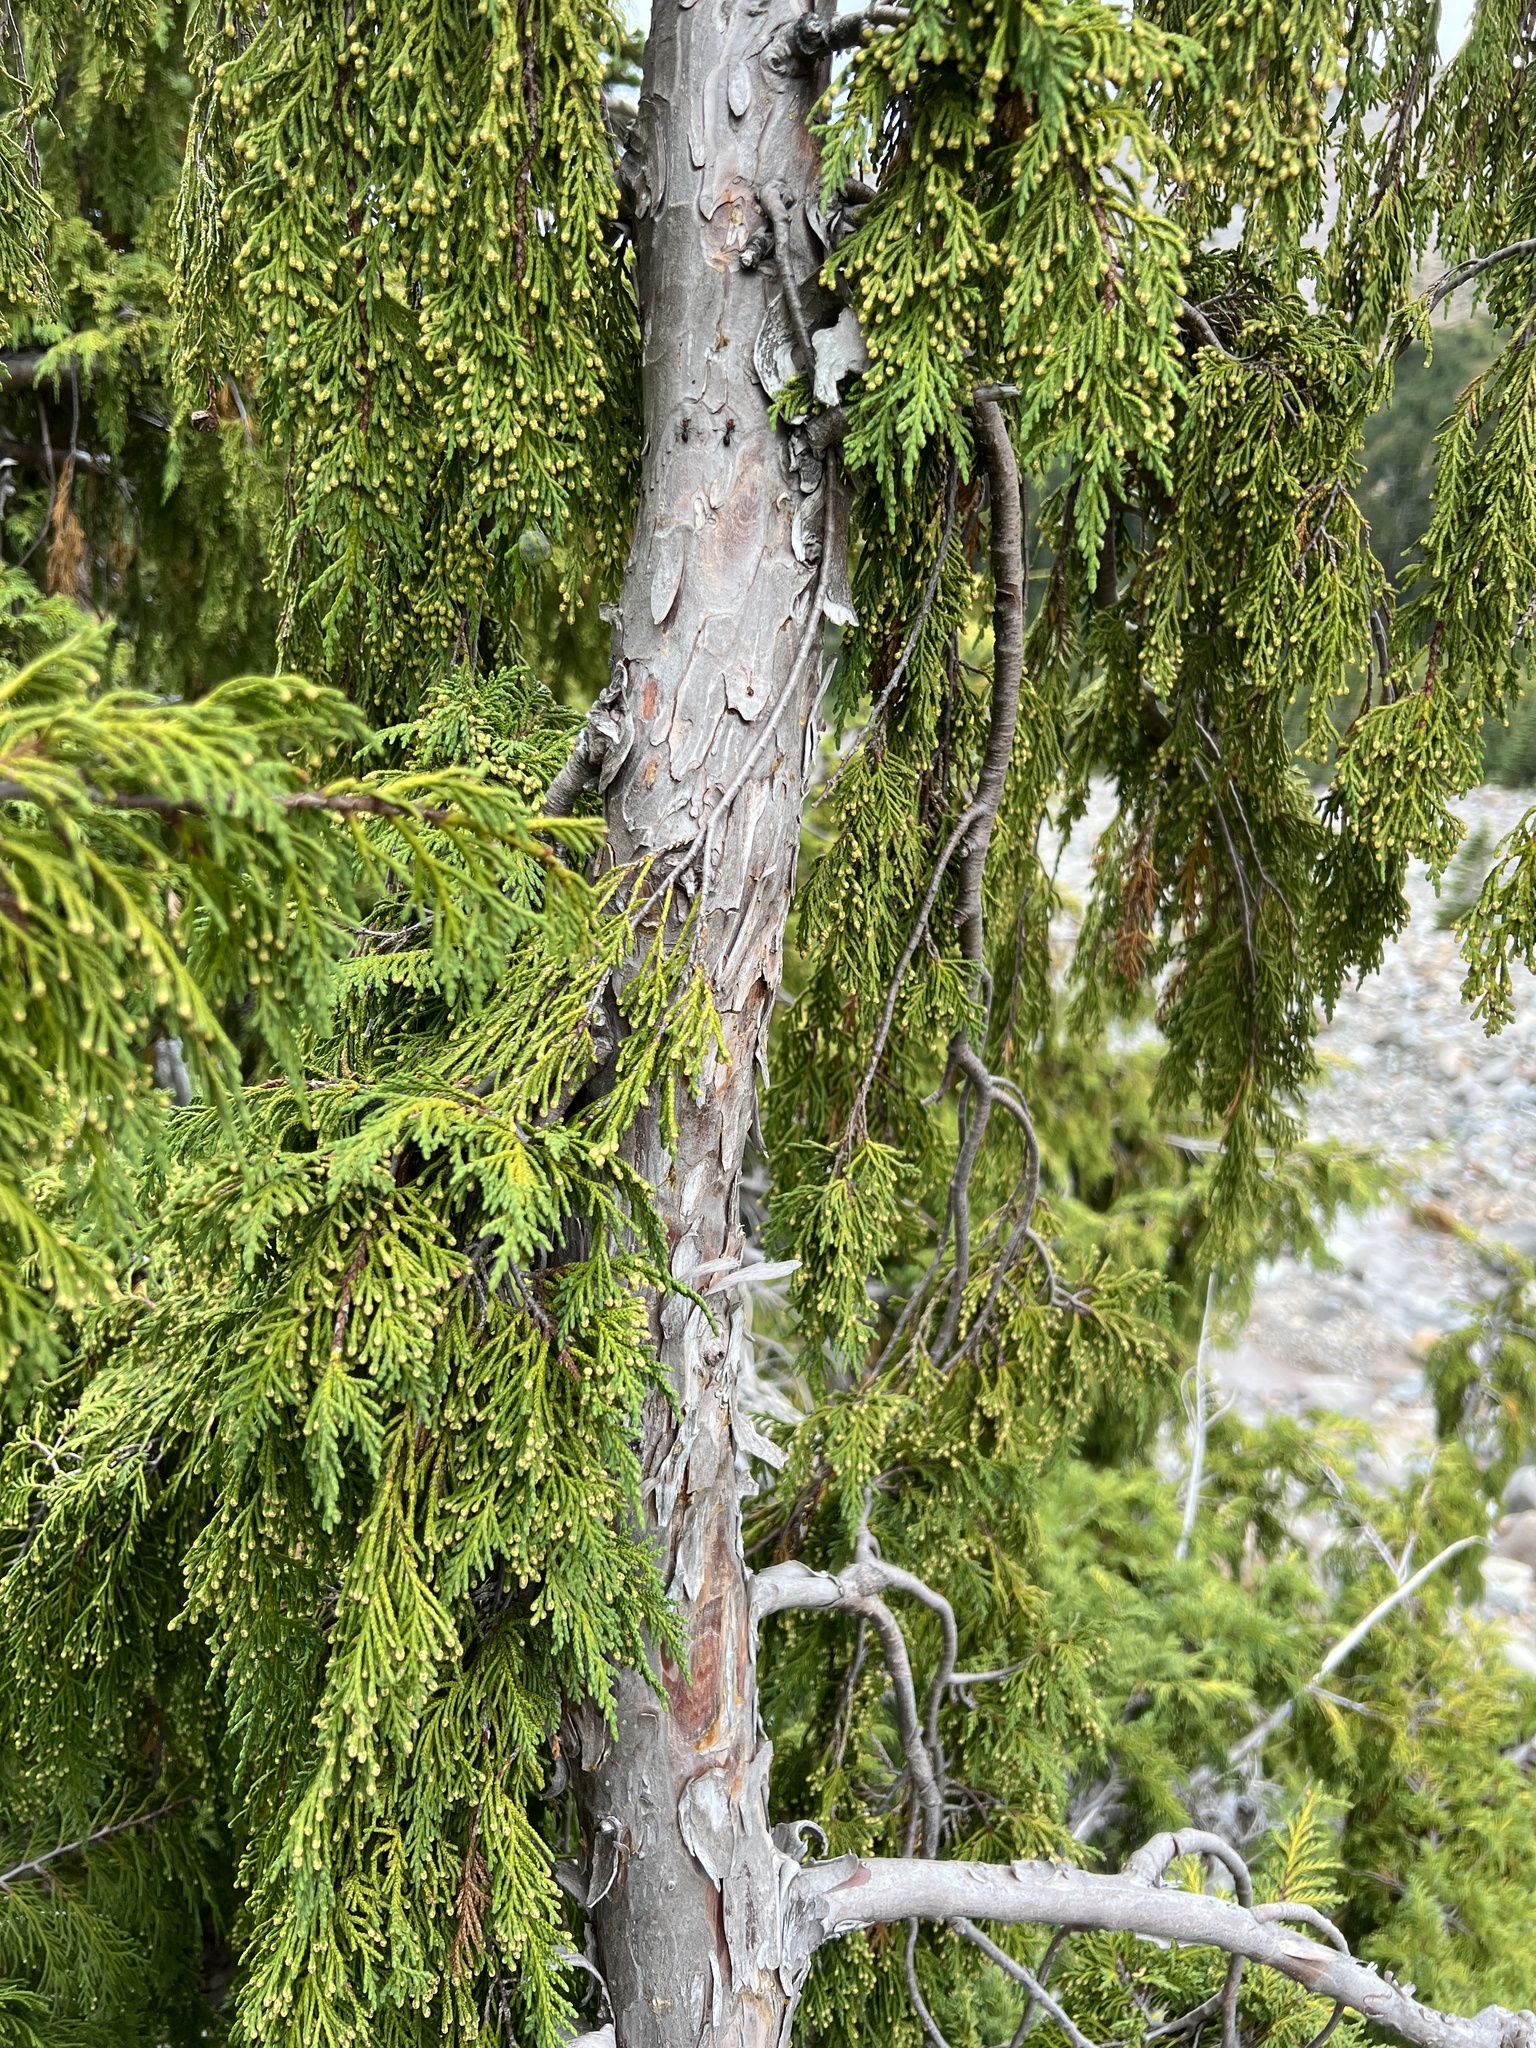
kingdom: Plantae
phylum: Tracheophyta
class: Pinopsida
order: Pinales
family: Cupressaceae
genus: Xanthocyparis
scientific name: Xanthocyparis nootkatensis
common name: Nootka cypress
